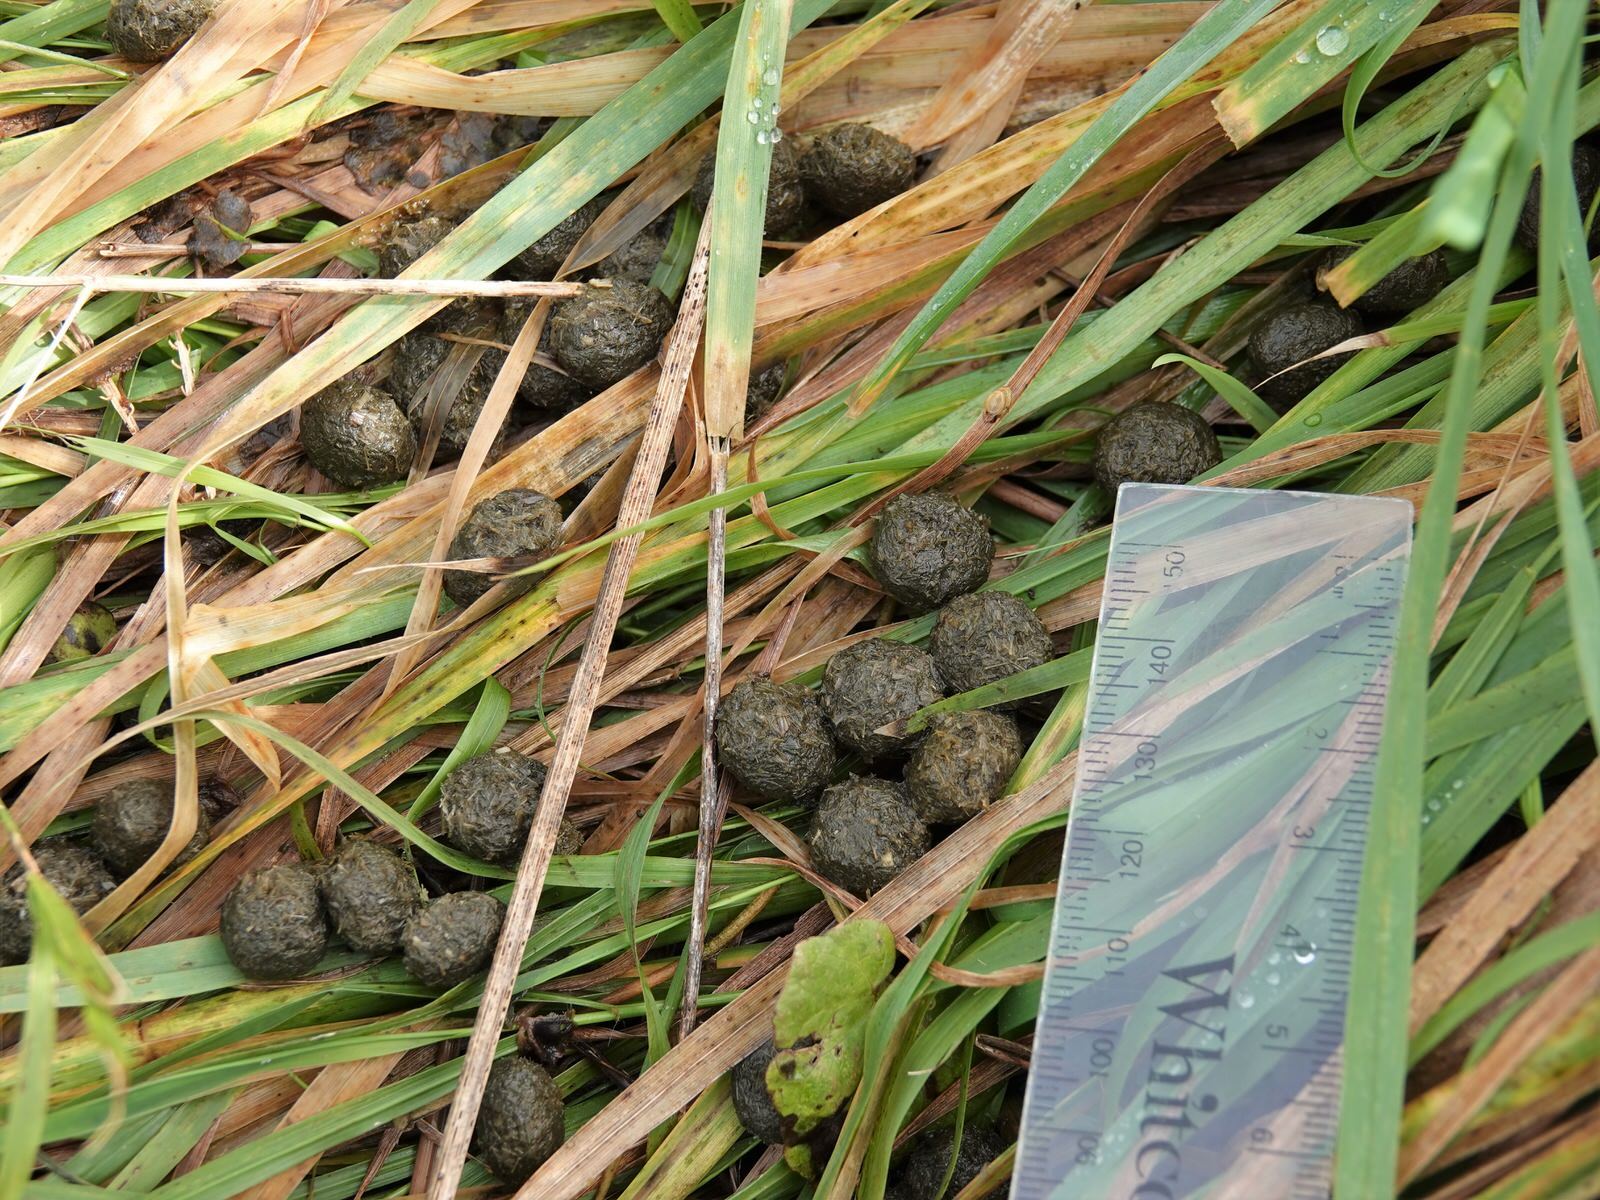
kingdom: Animalia
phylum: Chordata
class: Mammalia
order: Lagomorpha
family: Leporidae
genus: Oryctolagus
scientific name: Oryctolagus cuniculus
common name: European rabbit
